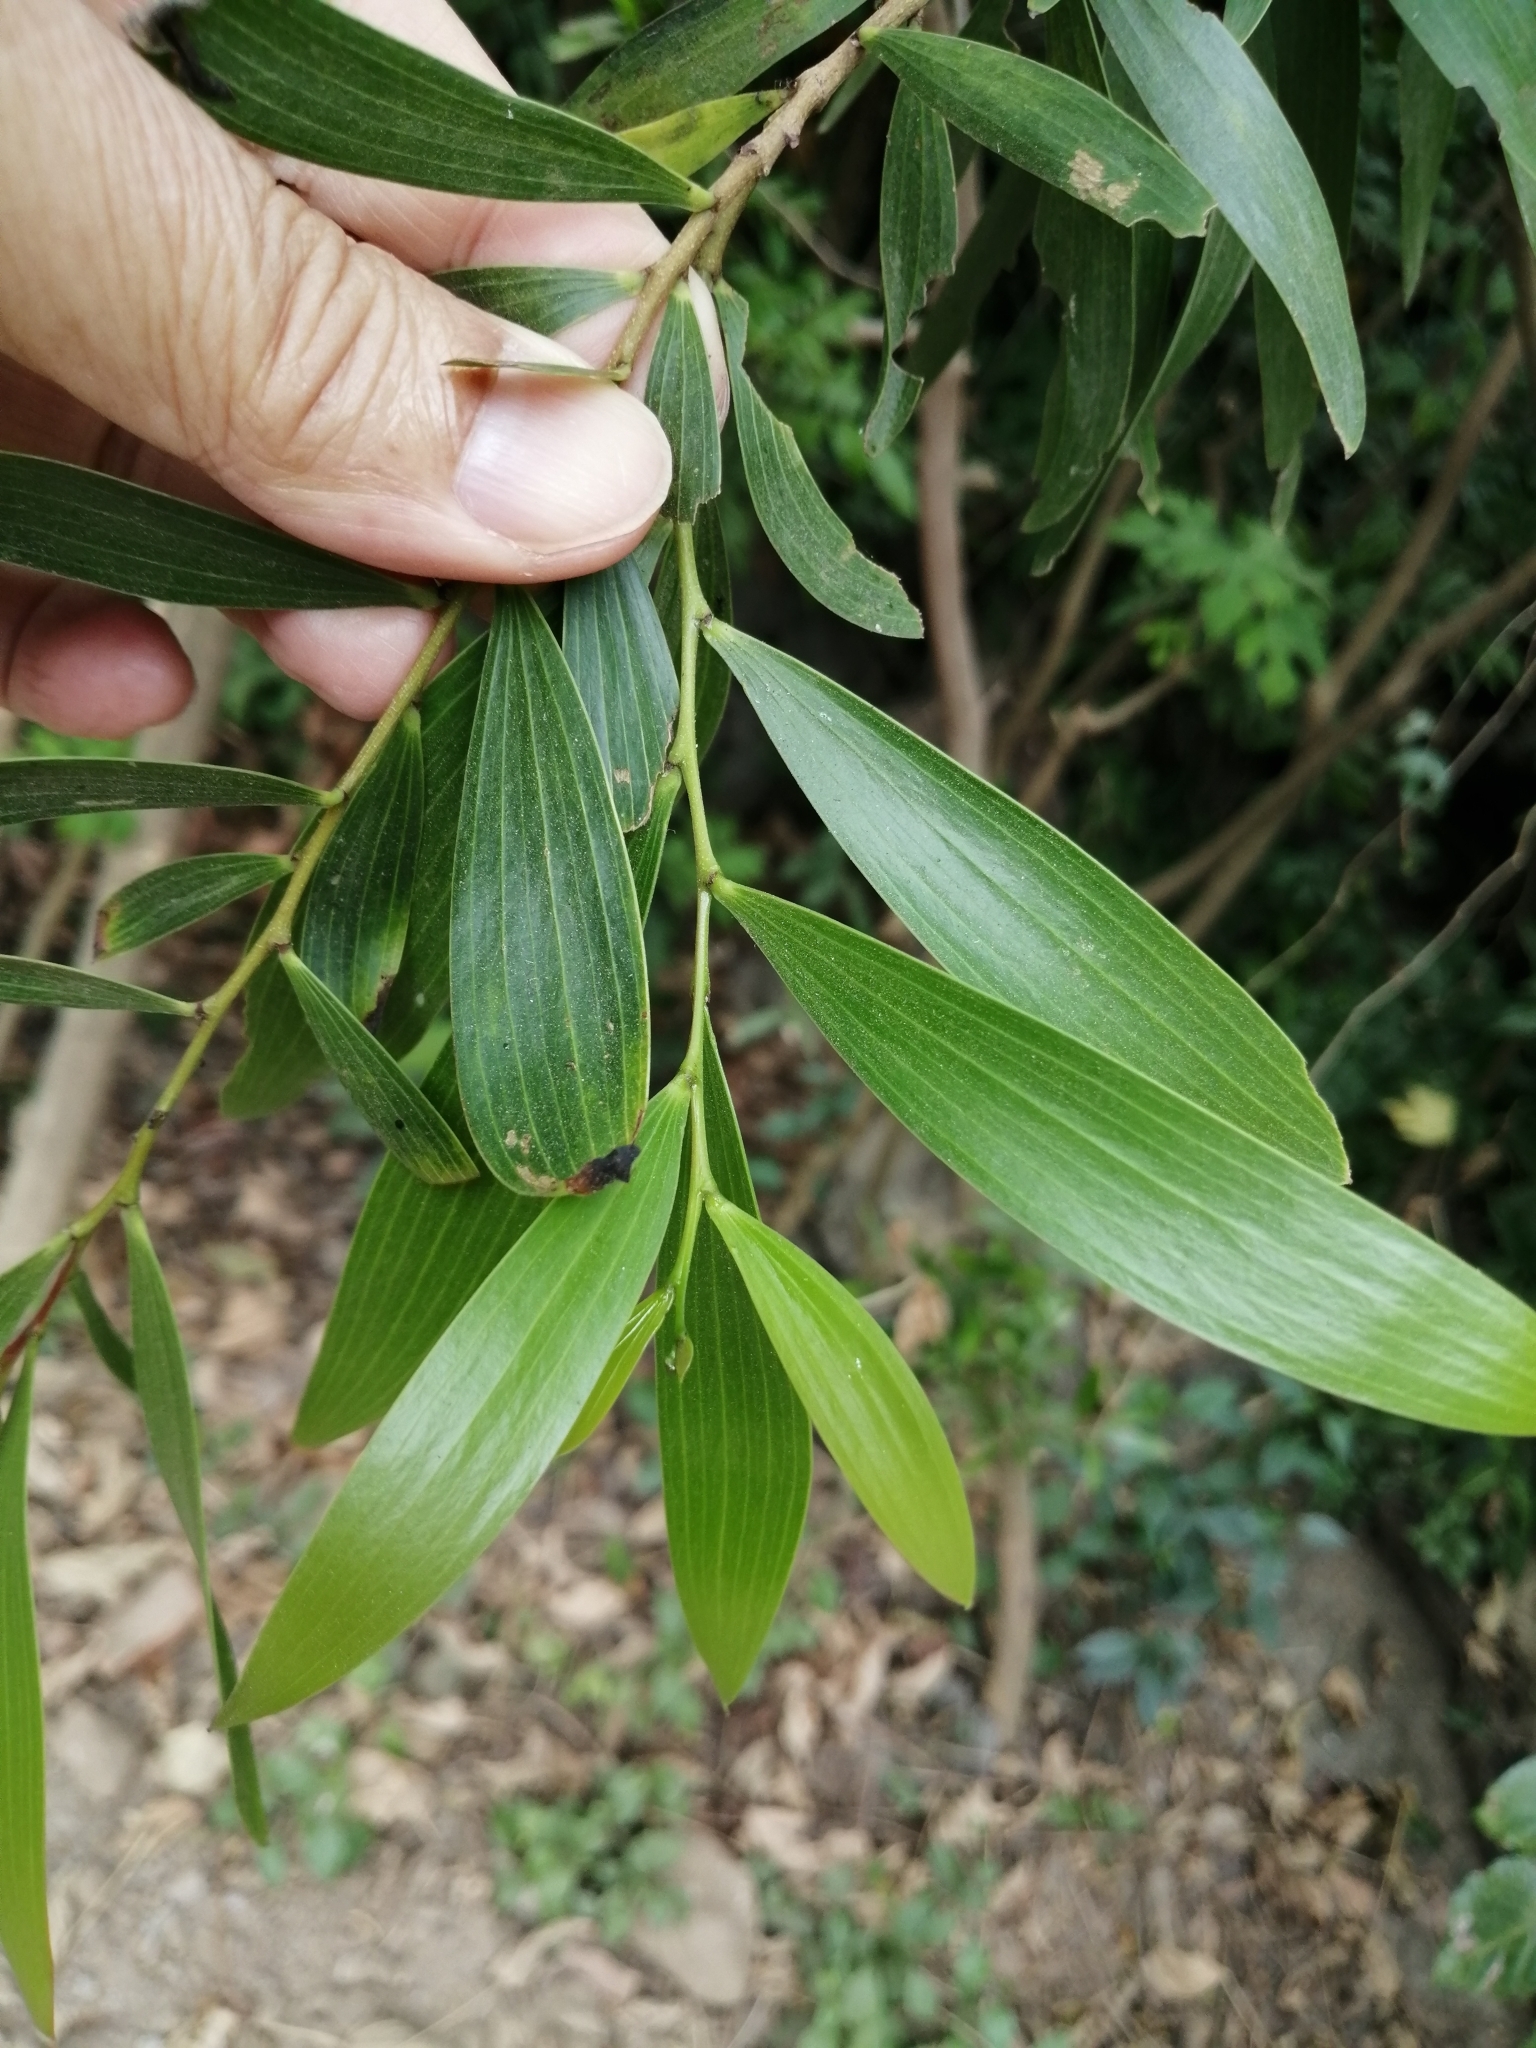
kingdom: Plantae
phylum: Tracheophyta
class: Magnoliopsida
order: Fabales
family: Fabaceae
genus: Acacia
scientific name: Acacia confusa
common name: Formosan koa
